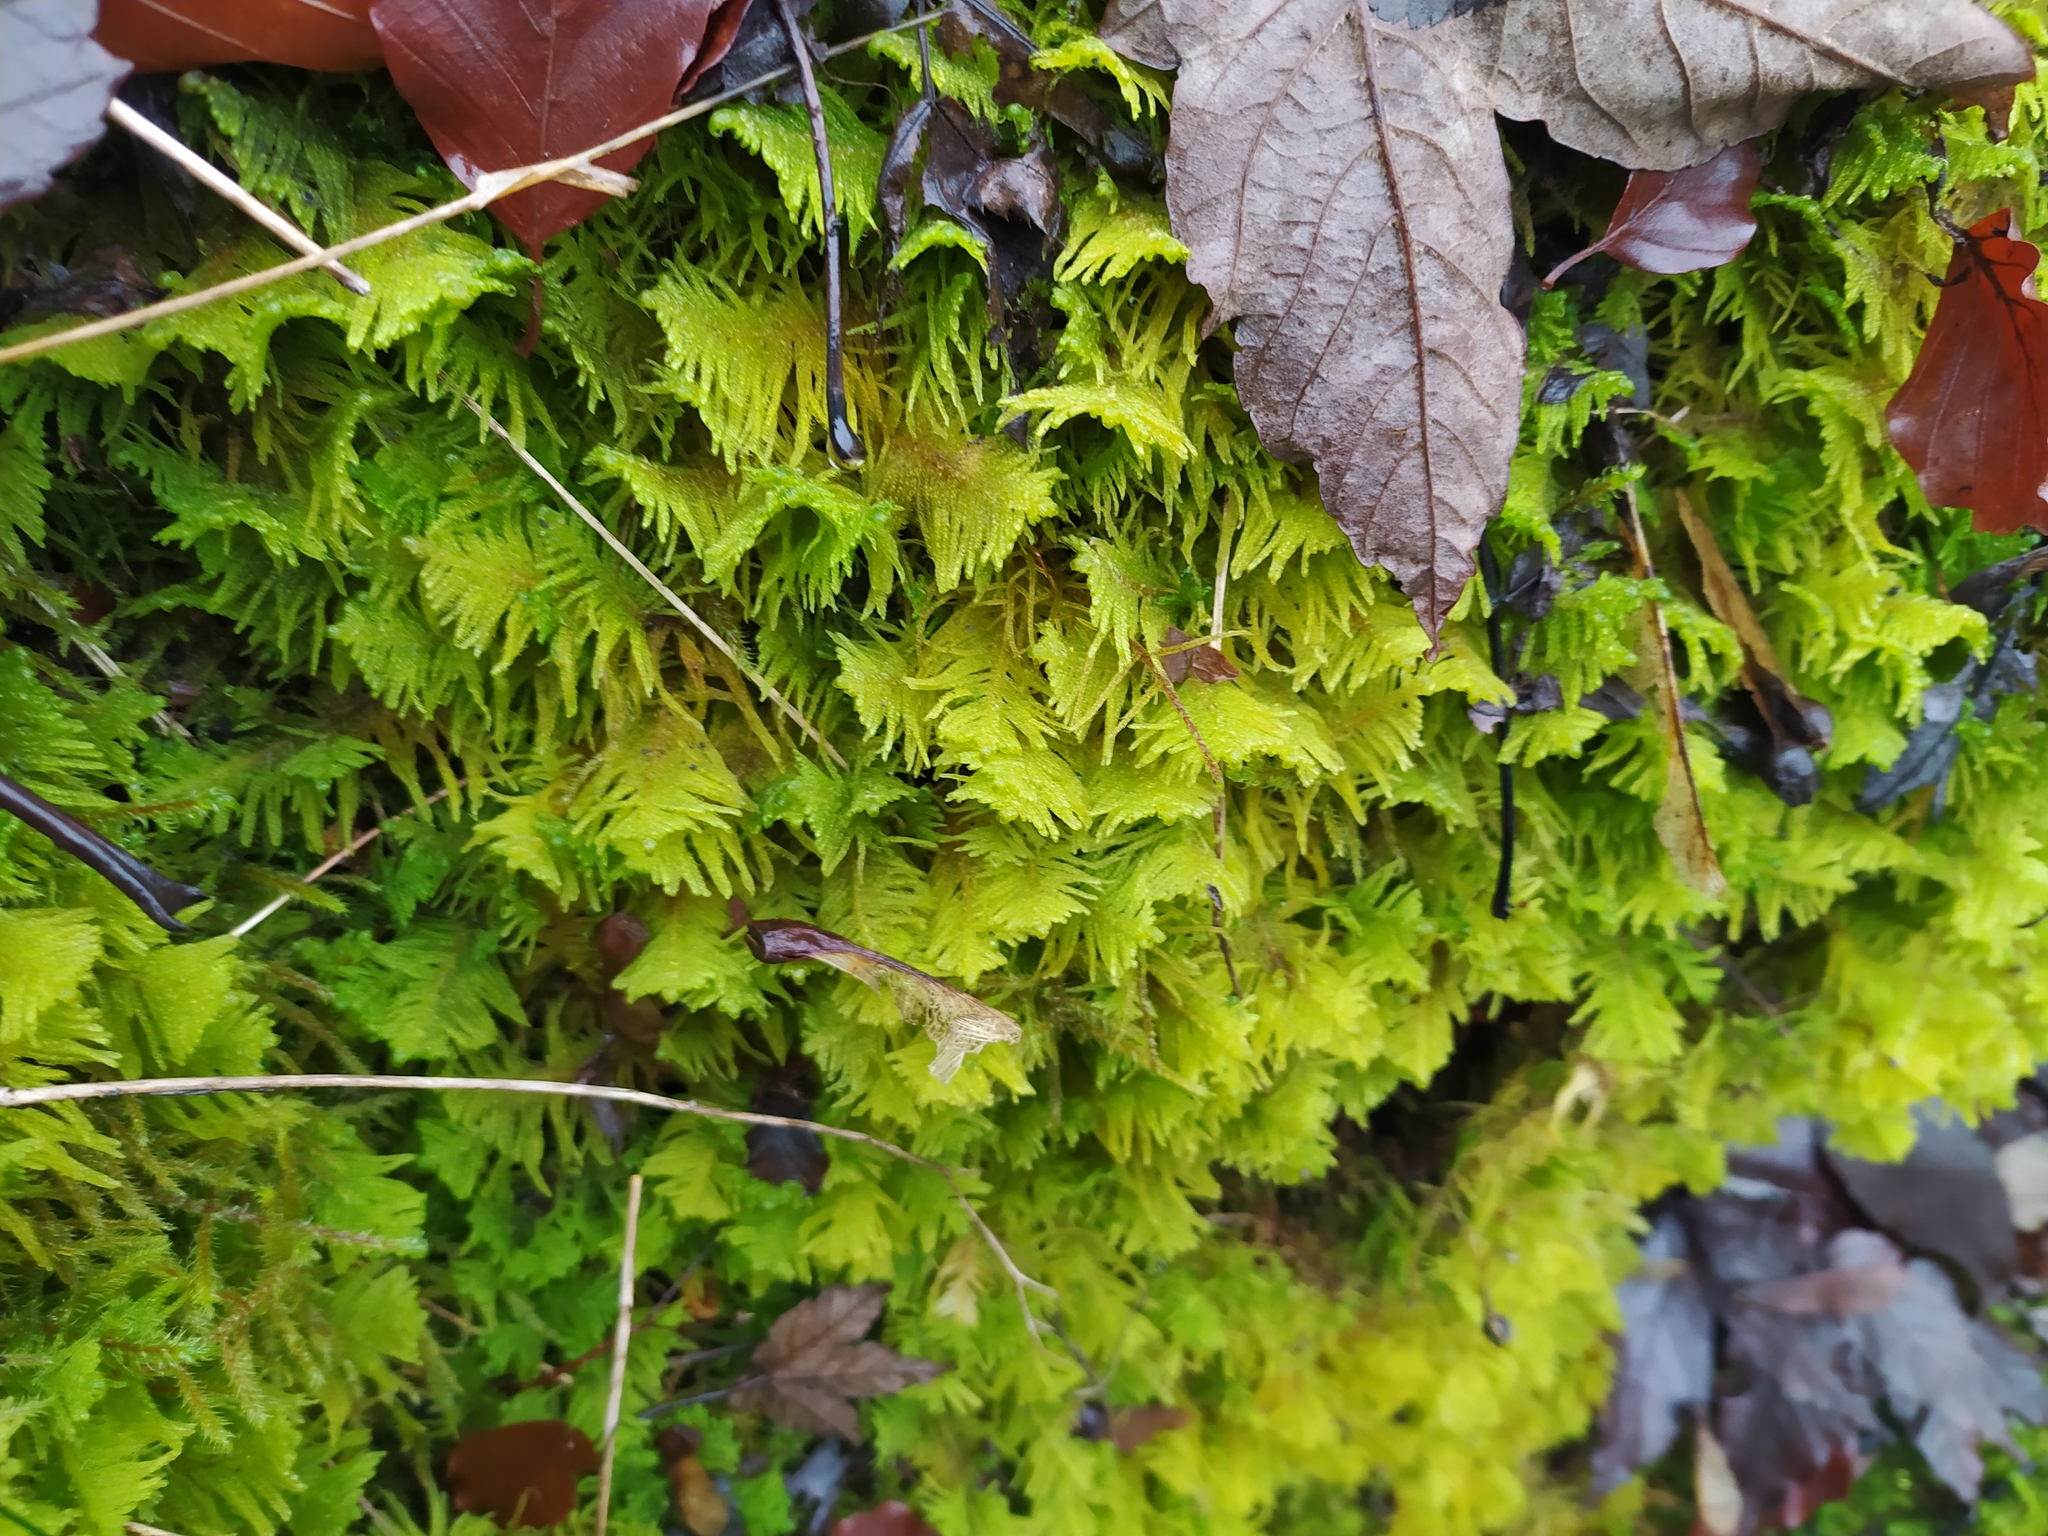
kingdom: Plantae
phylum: Bryophyta
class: Bryopsida
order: Hypnales
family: Pylaisiaceae
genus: Ptilium
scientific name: Ptilium crista-castrensis
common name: Knight's plume moss
